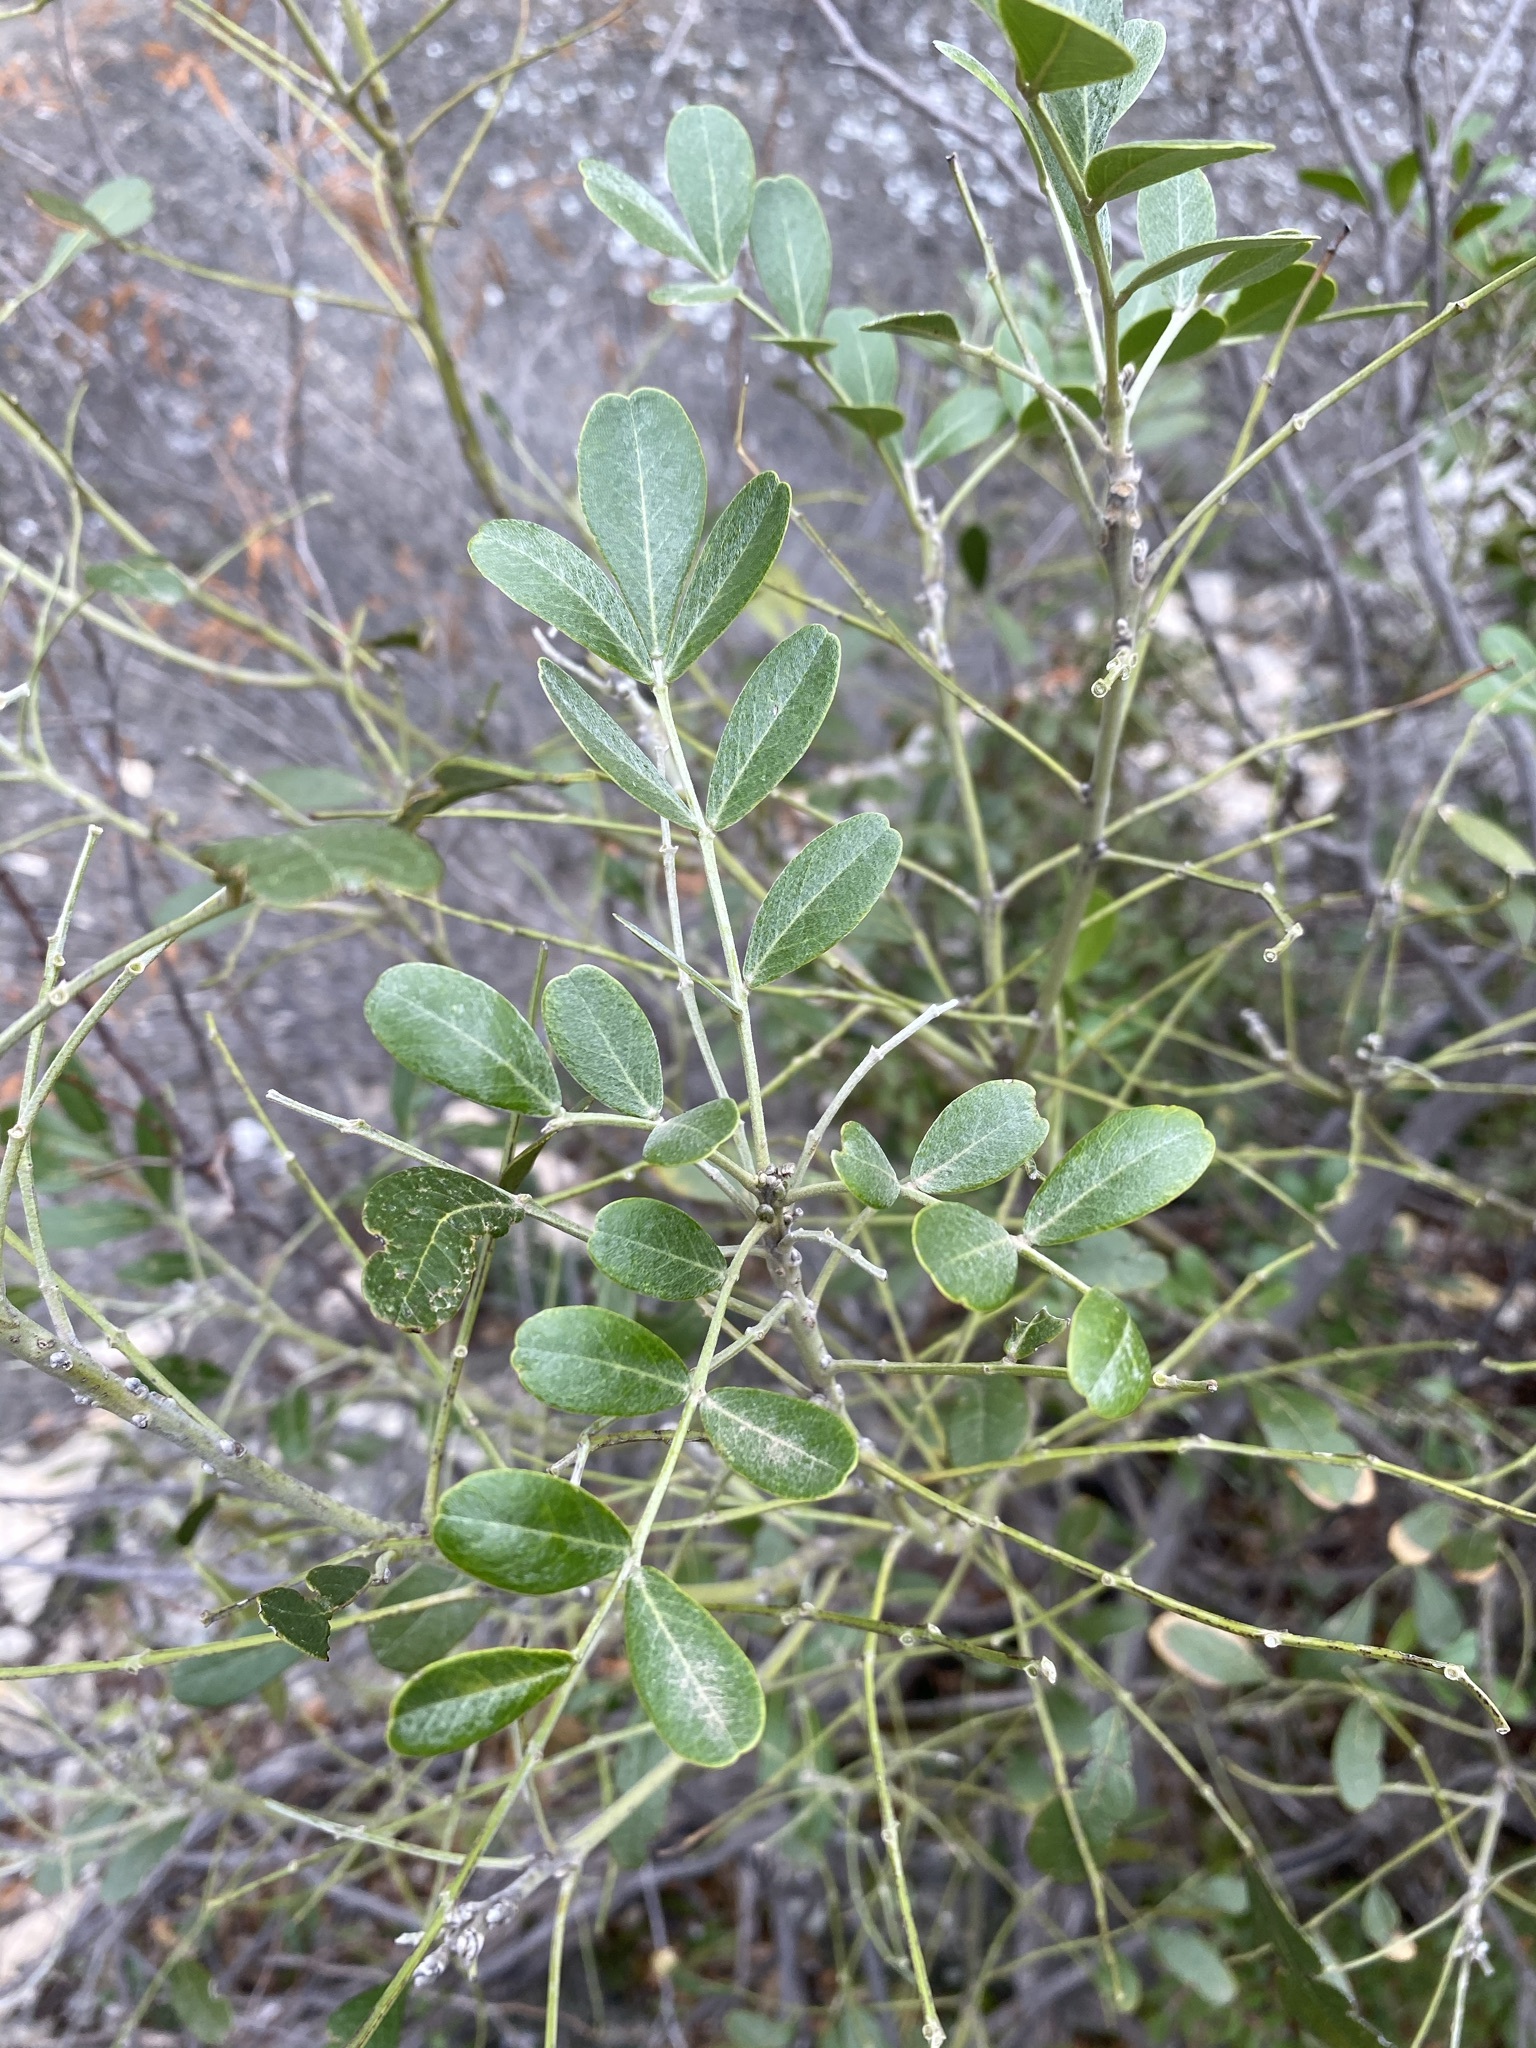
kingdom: Plantae
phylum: Tracheophyta
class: Magnoliopsida
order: Fabales
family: Fabaceae
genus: Dermatophyllum
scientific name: Dermatophyllum secundiflorum
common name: Texas-mountain-laurel
